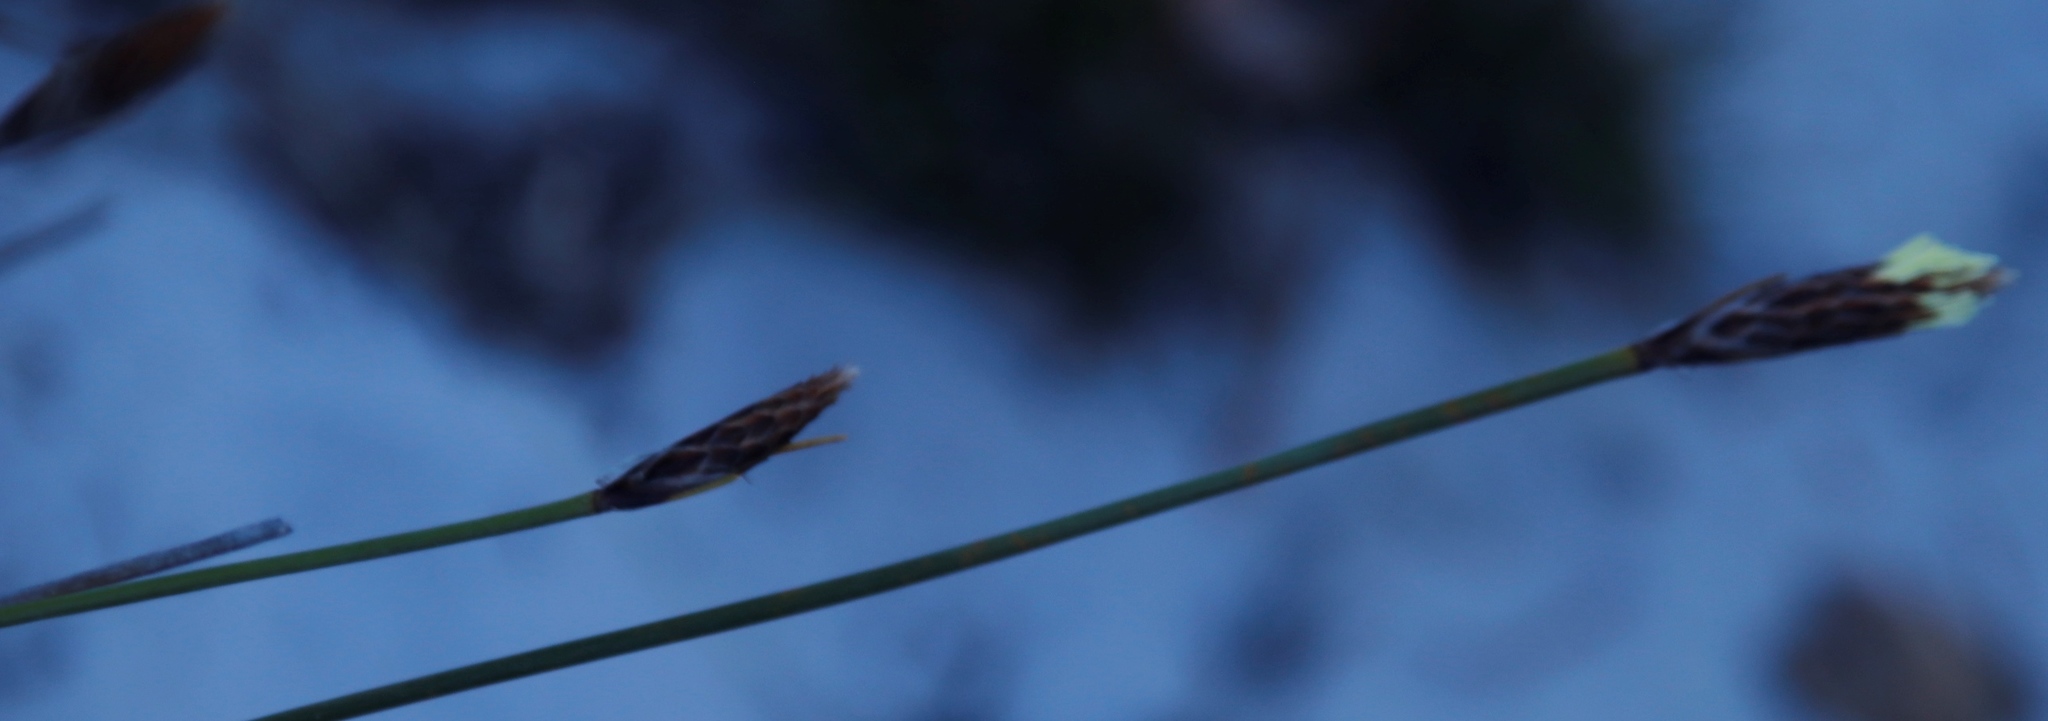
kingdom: Plantae
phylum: Tracheophyta
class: Liliopsida
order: Poales
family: Cyperaceae
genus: Ficinia
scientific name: Ficinia deusta
